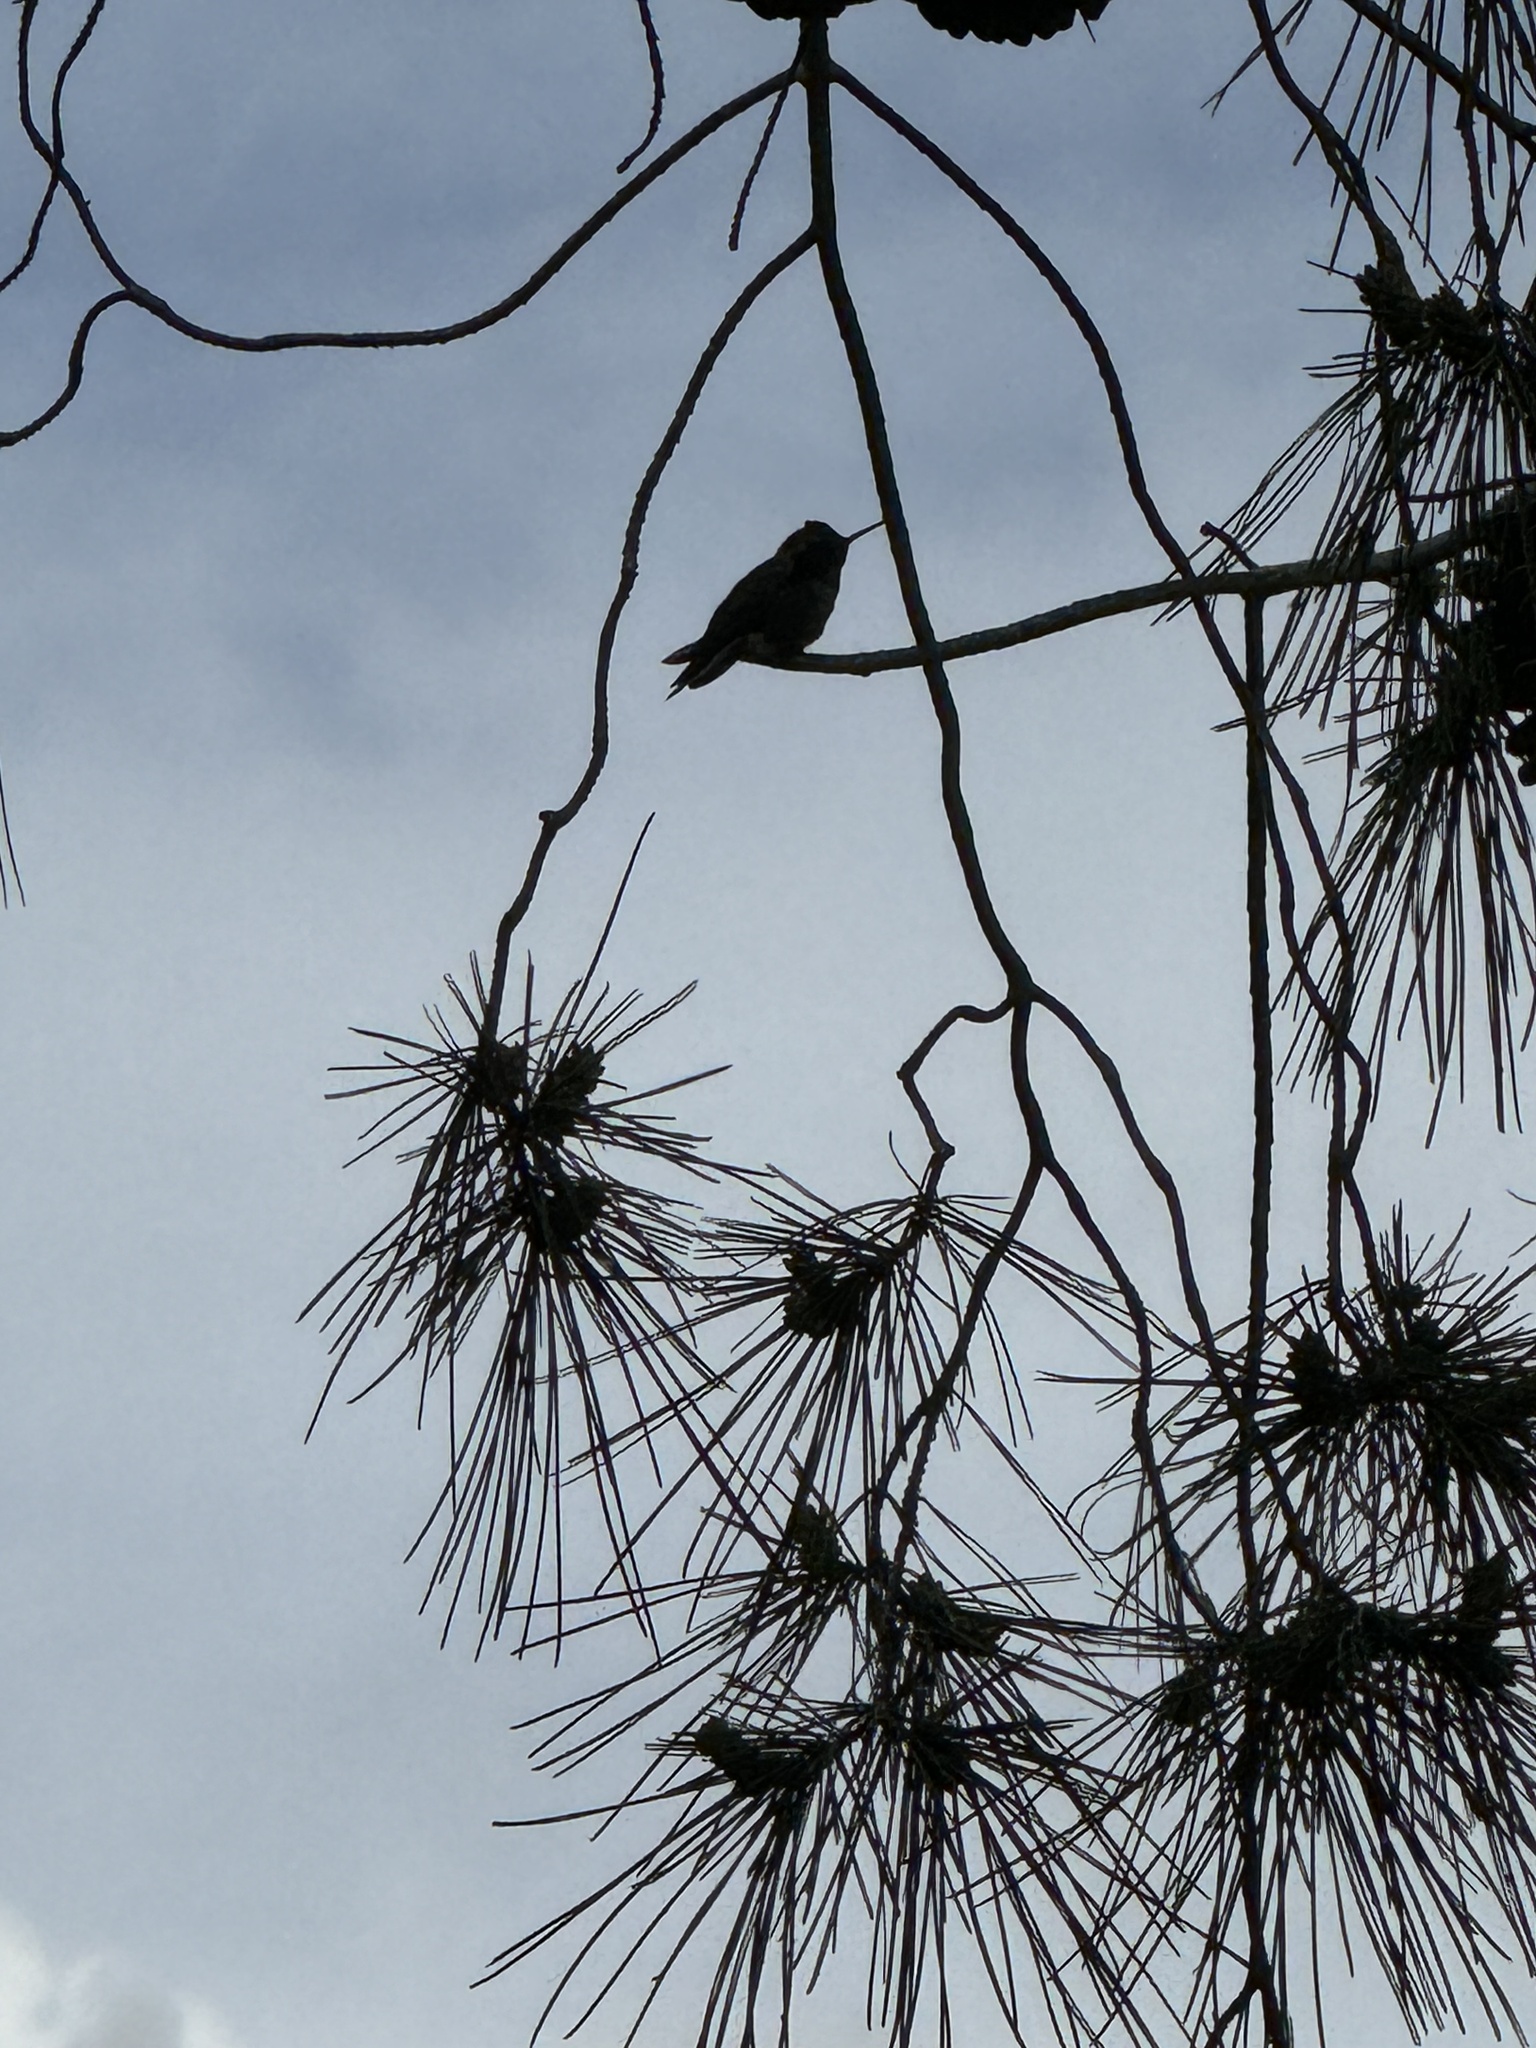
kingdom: Animalia
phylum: Chordata
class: Aves
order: Apodiformes
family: Trochilidae
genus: Calypte
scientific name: Calypte anna
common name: Anna's hummingbird
